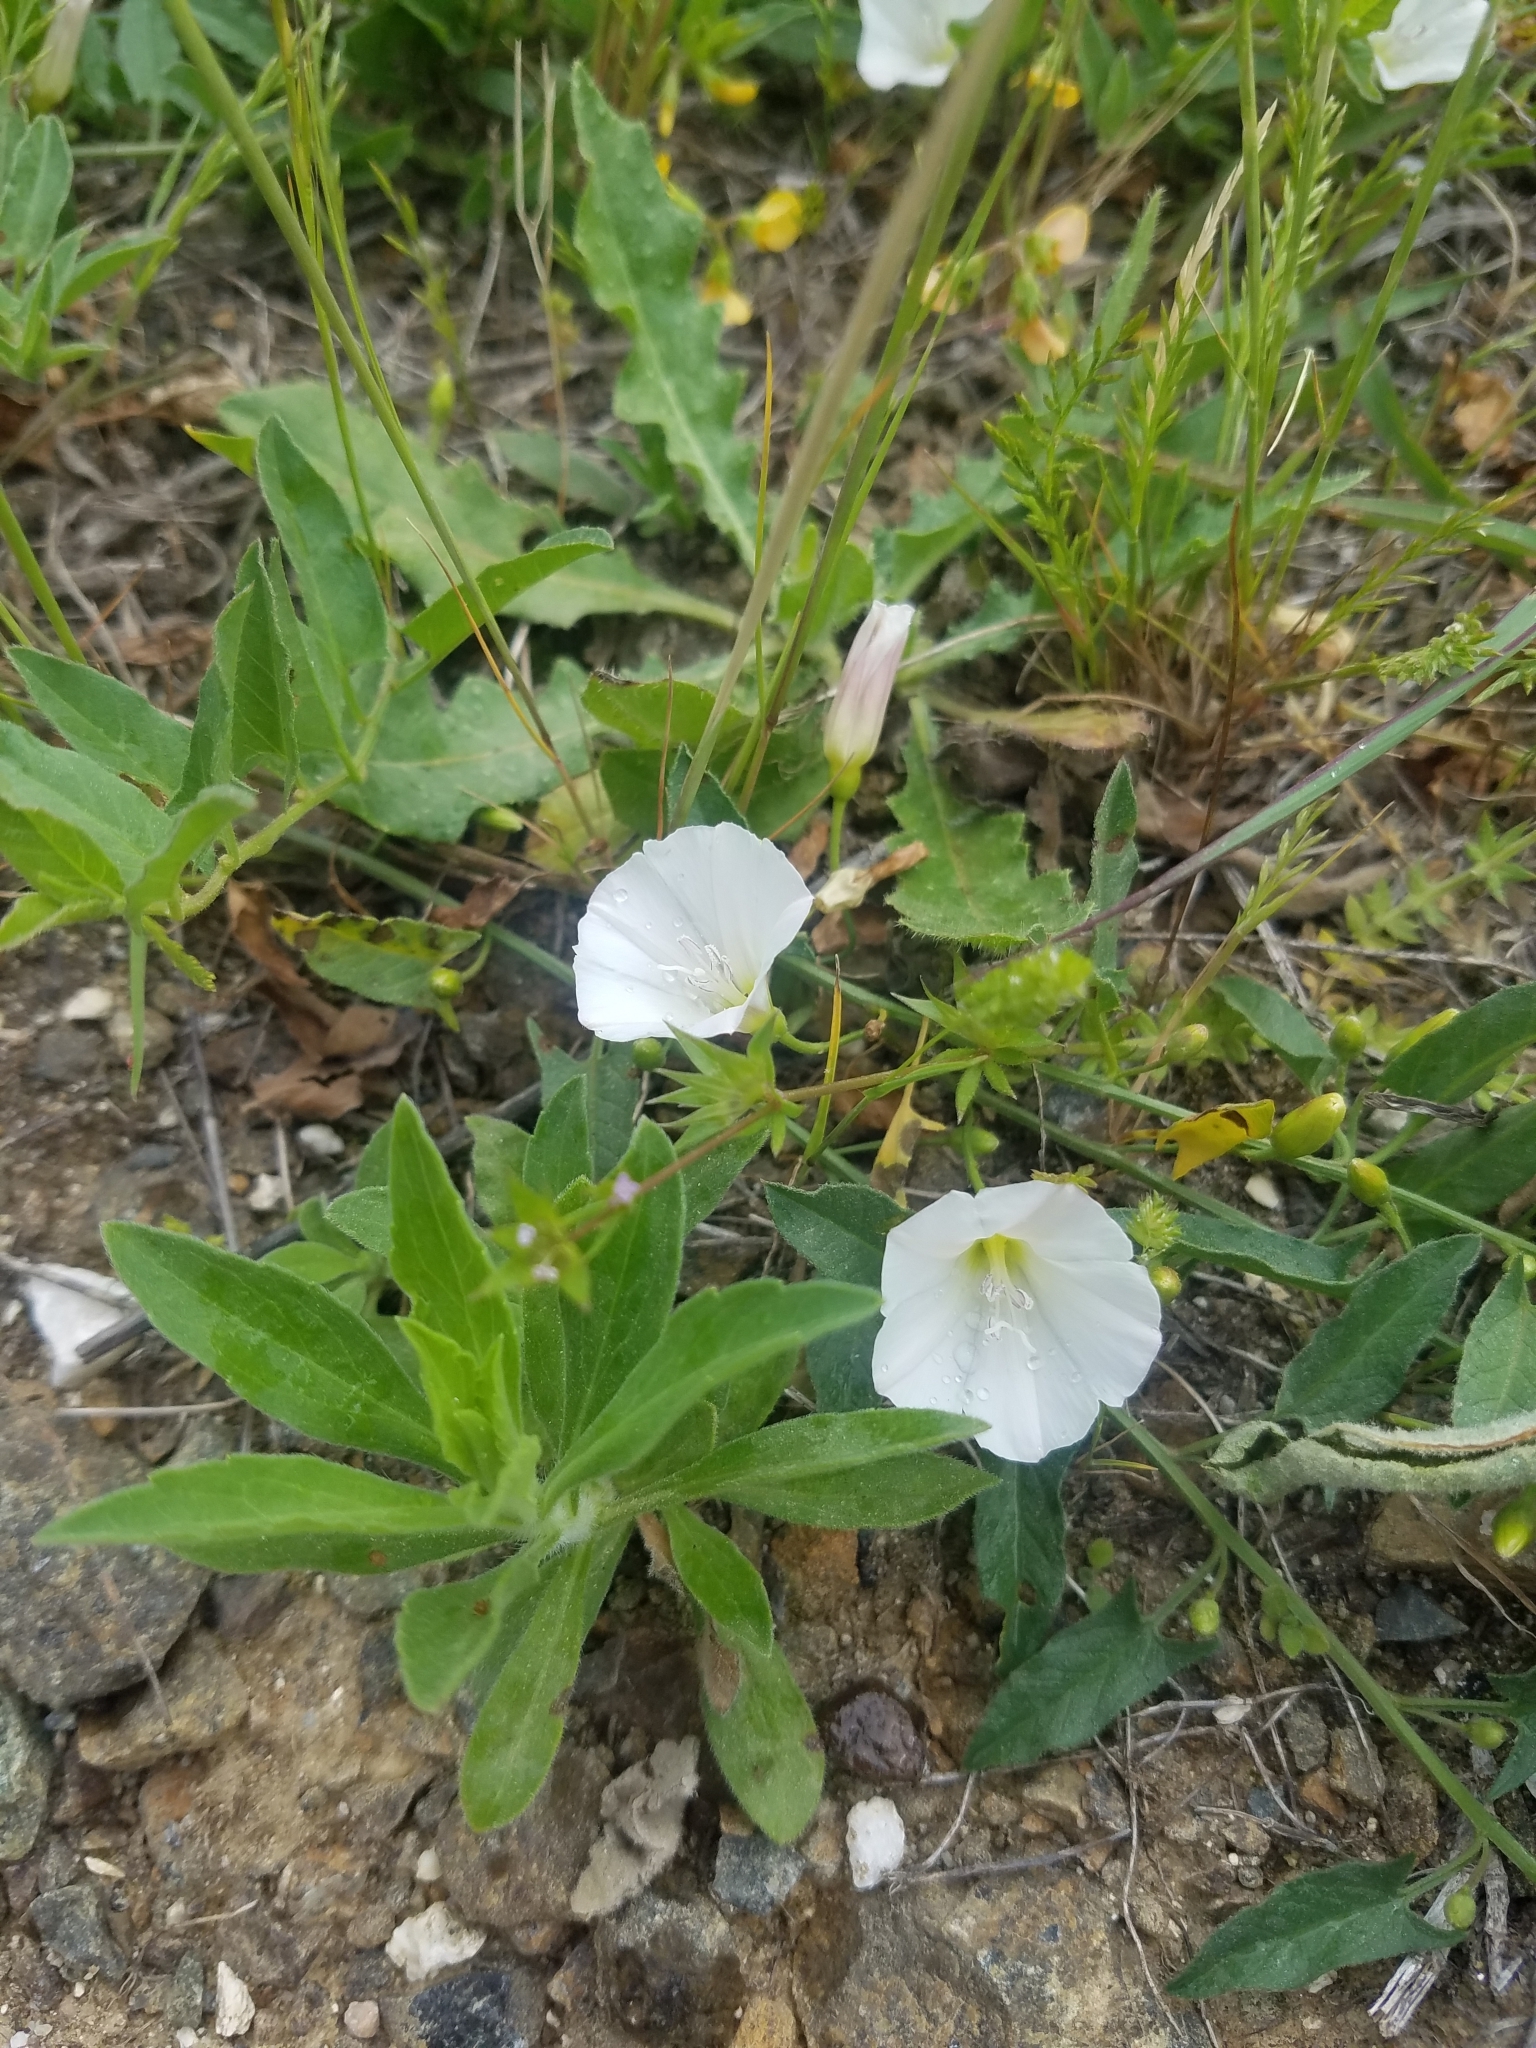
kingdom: Plantae
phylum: Tracheophyta
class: Magnoliopsida
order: Solanales
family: Convolvulaceae
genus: Convolvulus
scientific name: Convolvulus arvensis
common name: Field bindweed
